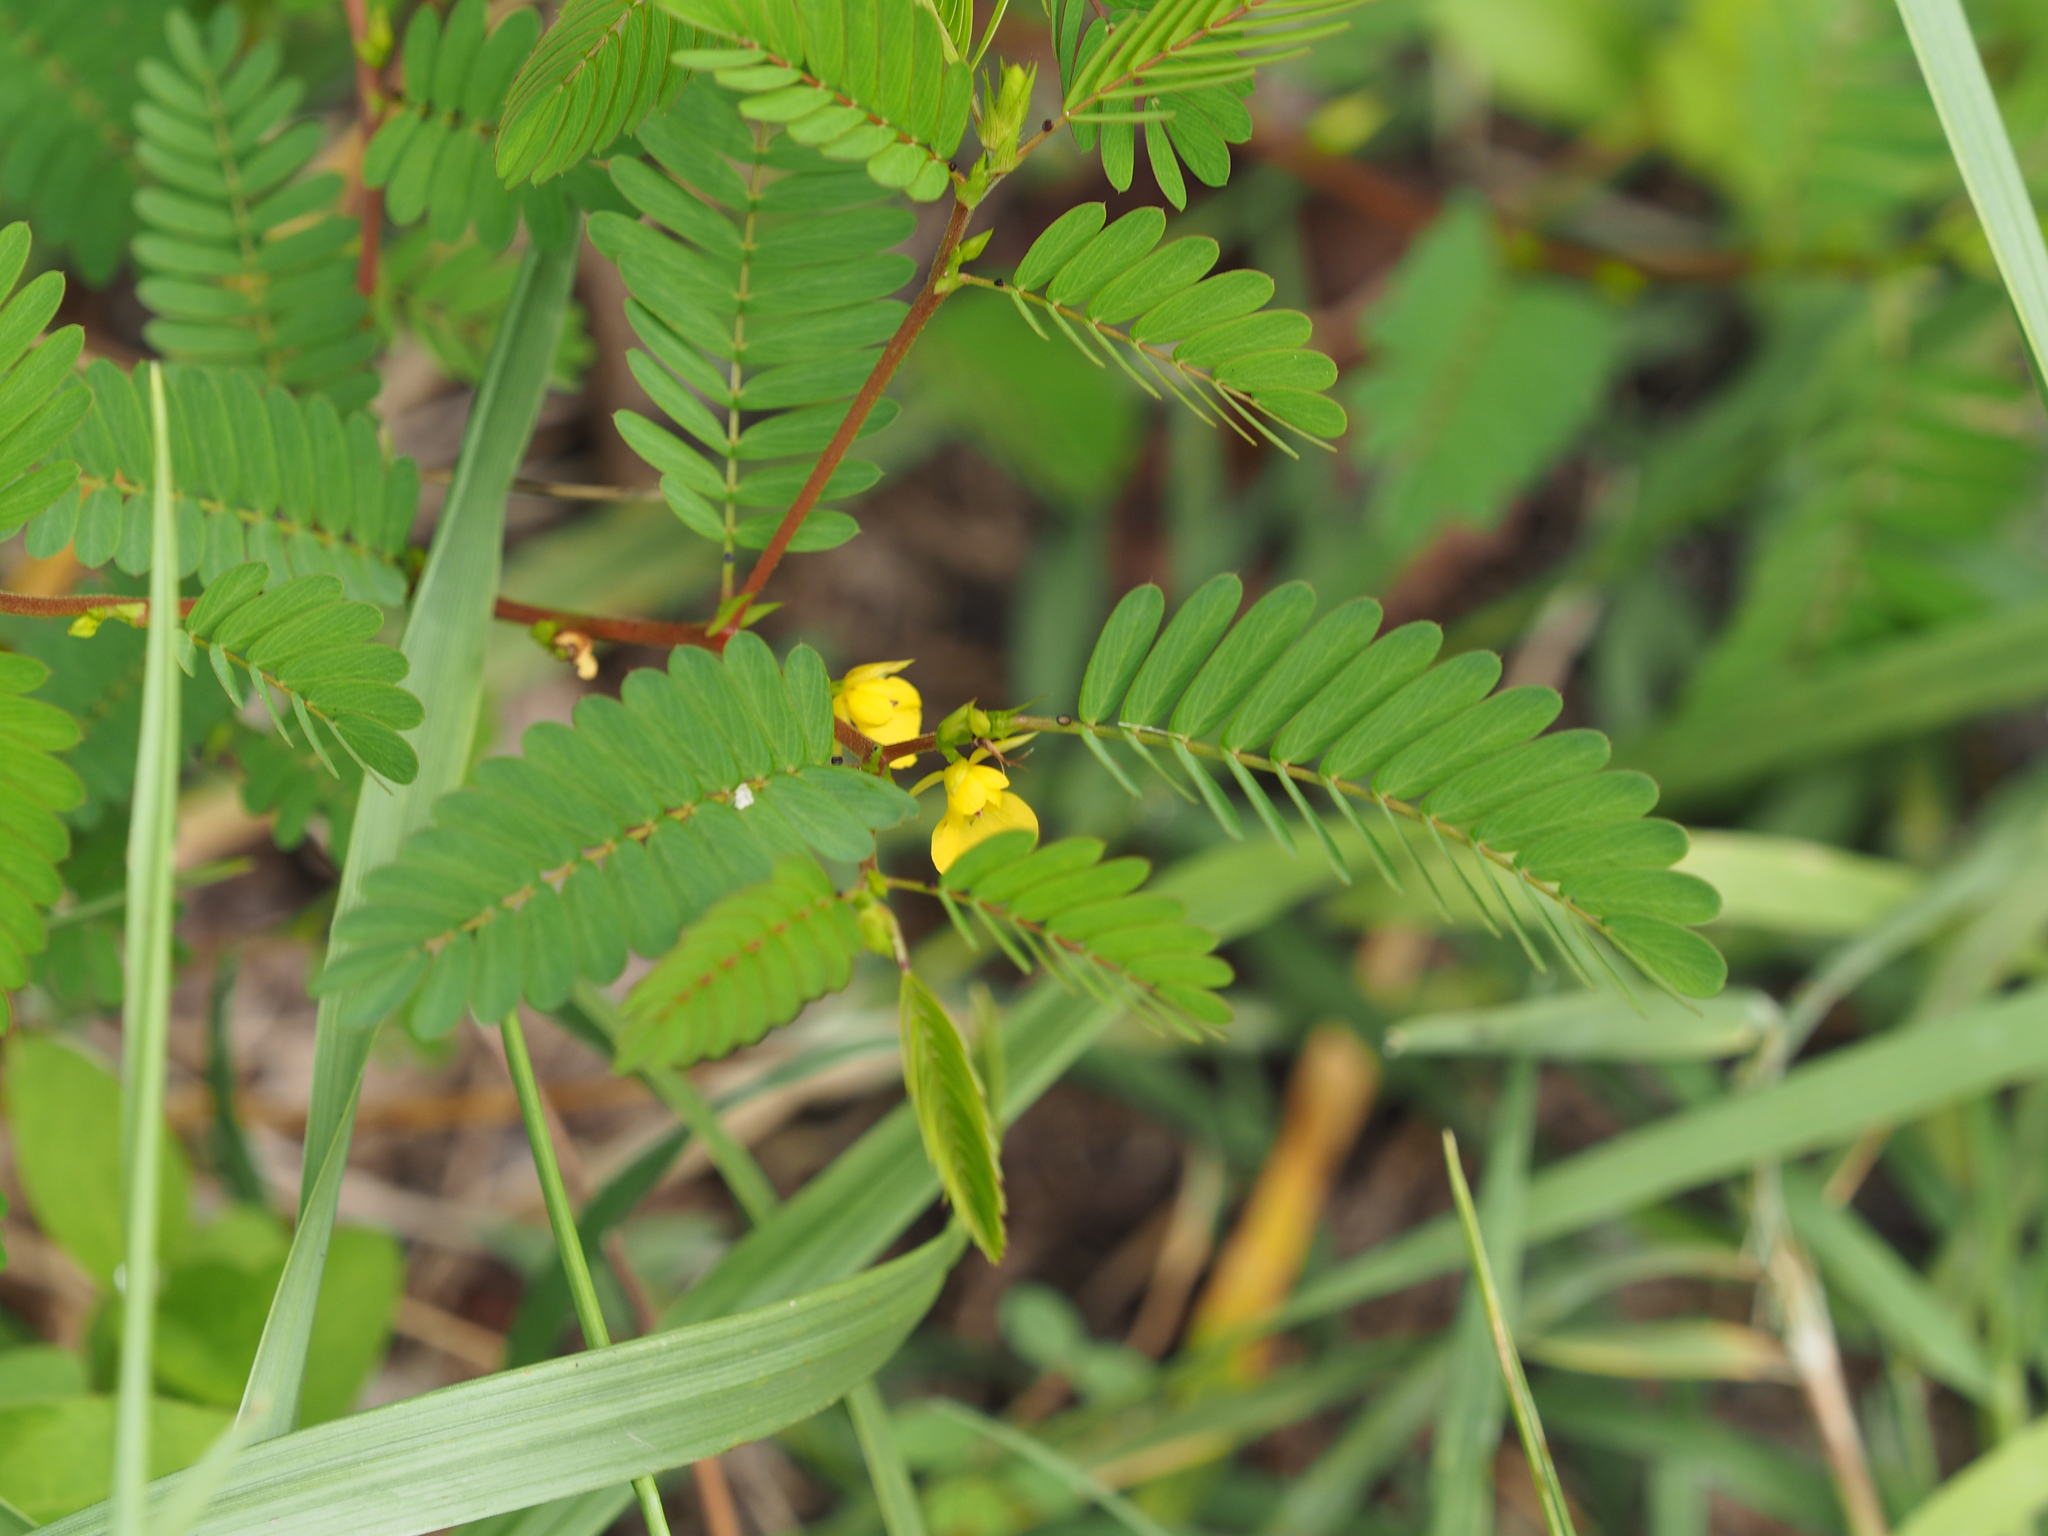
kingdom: Plantae
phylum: Tracheophyta
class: Magnoliopsida
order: Fabales
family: Fabaceae
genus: Chamaecrista
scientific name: Chamaecrista nictitans
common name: Sensitive cassia
